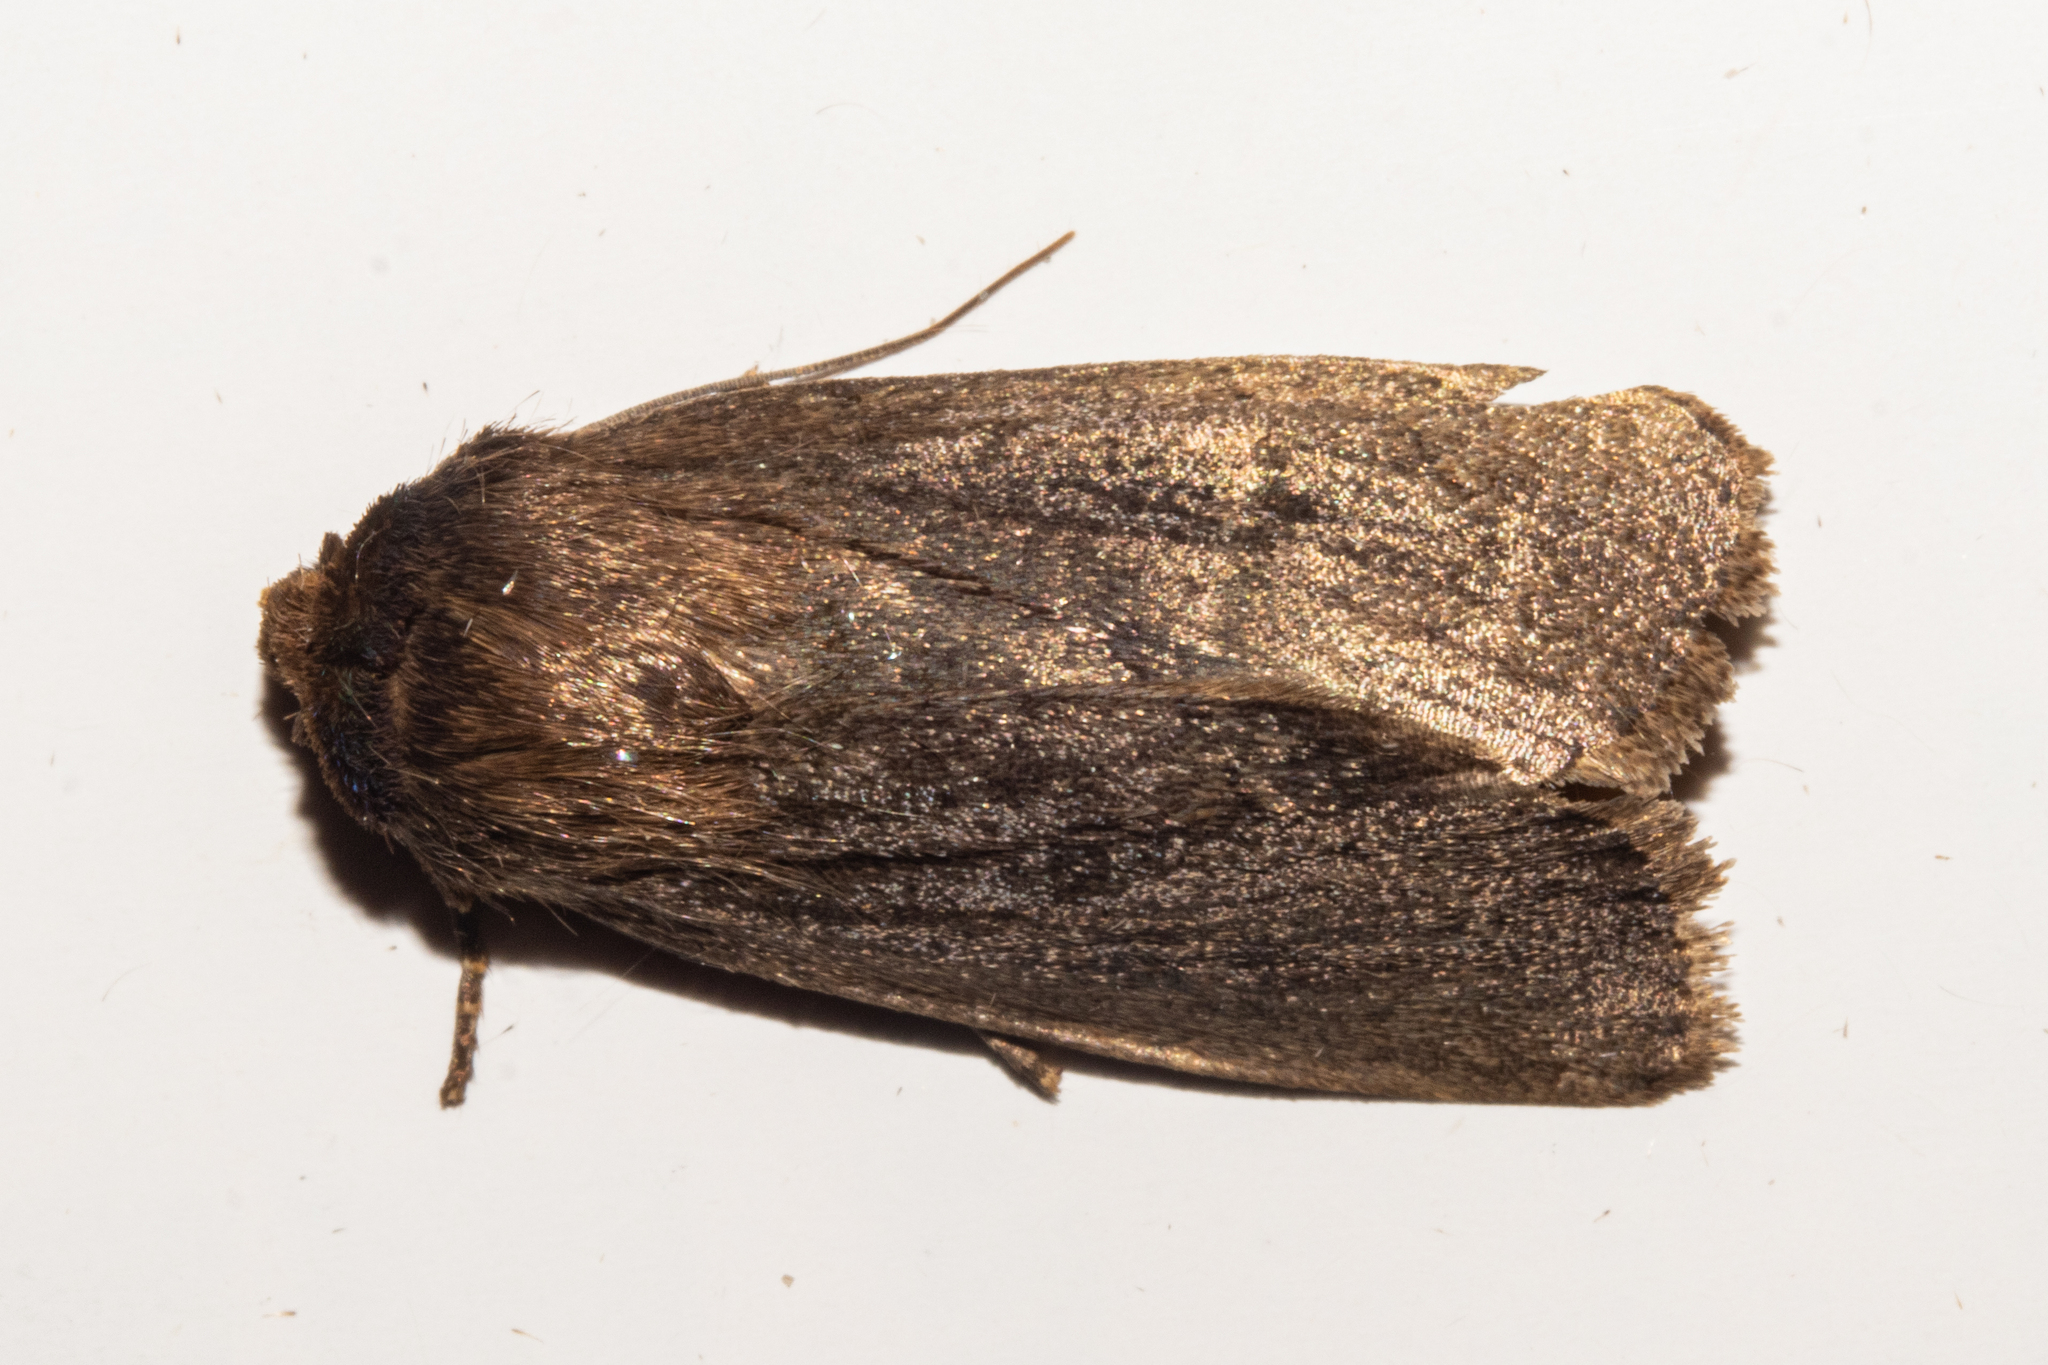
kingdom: Animalia
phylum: Arthropoda
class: Insecta
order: Lepidoptera
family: Noctuidae
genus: Bityla
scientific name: Bityla defigurata
